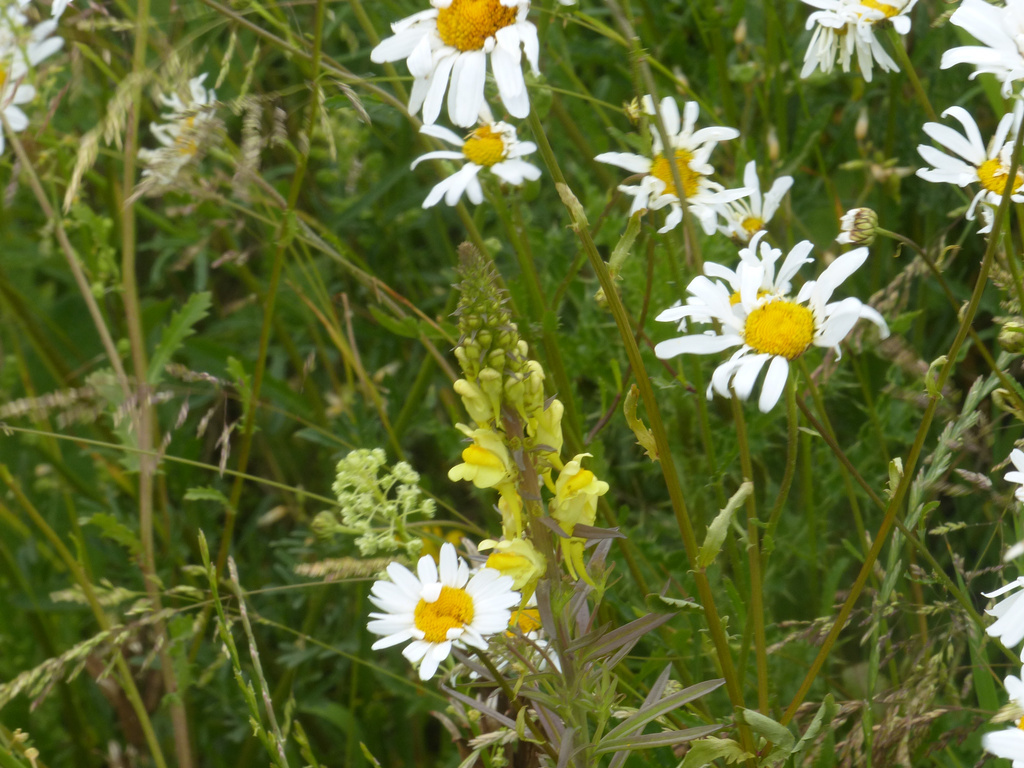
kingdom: Plantae
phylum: Tracheophyta
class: Magnoliopsida
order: Lamiales
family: Plantaginaceae
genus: Linaria
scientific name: Linaria vulgaris
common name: Butter and eggs
